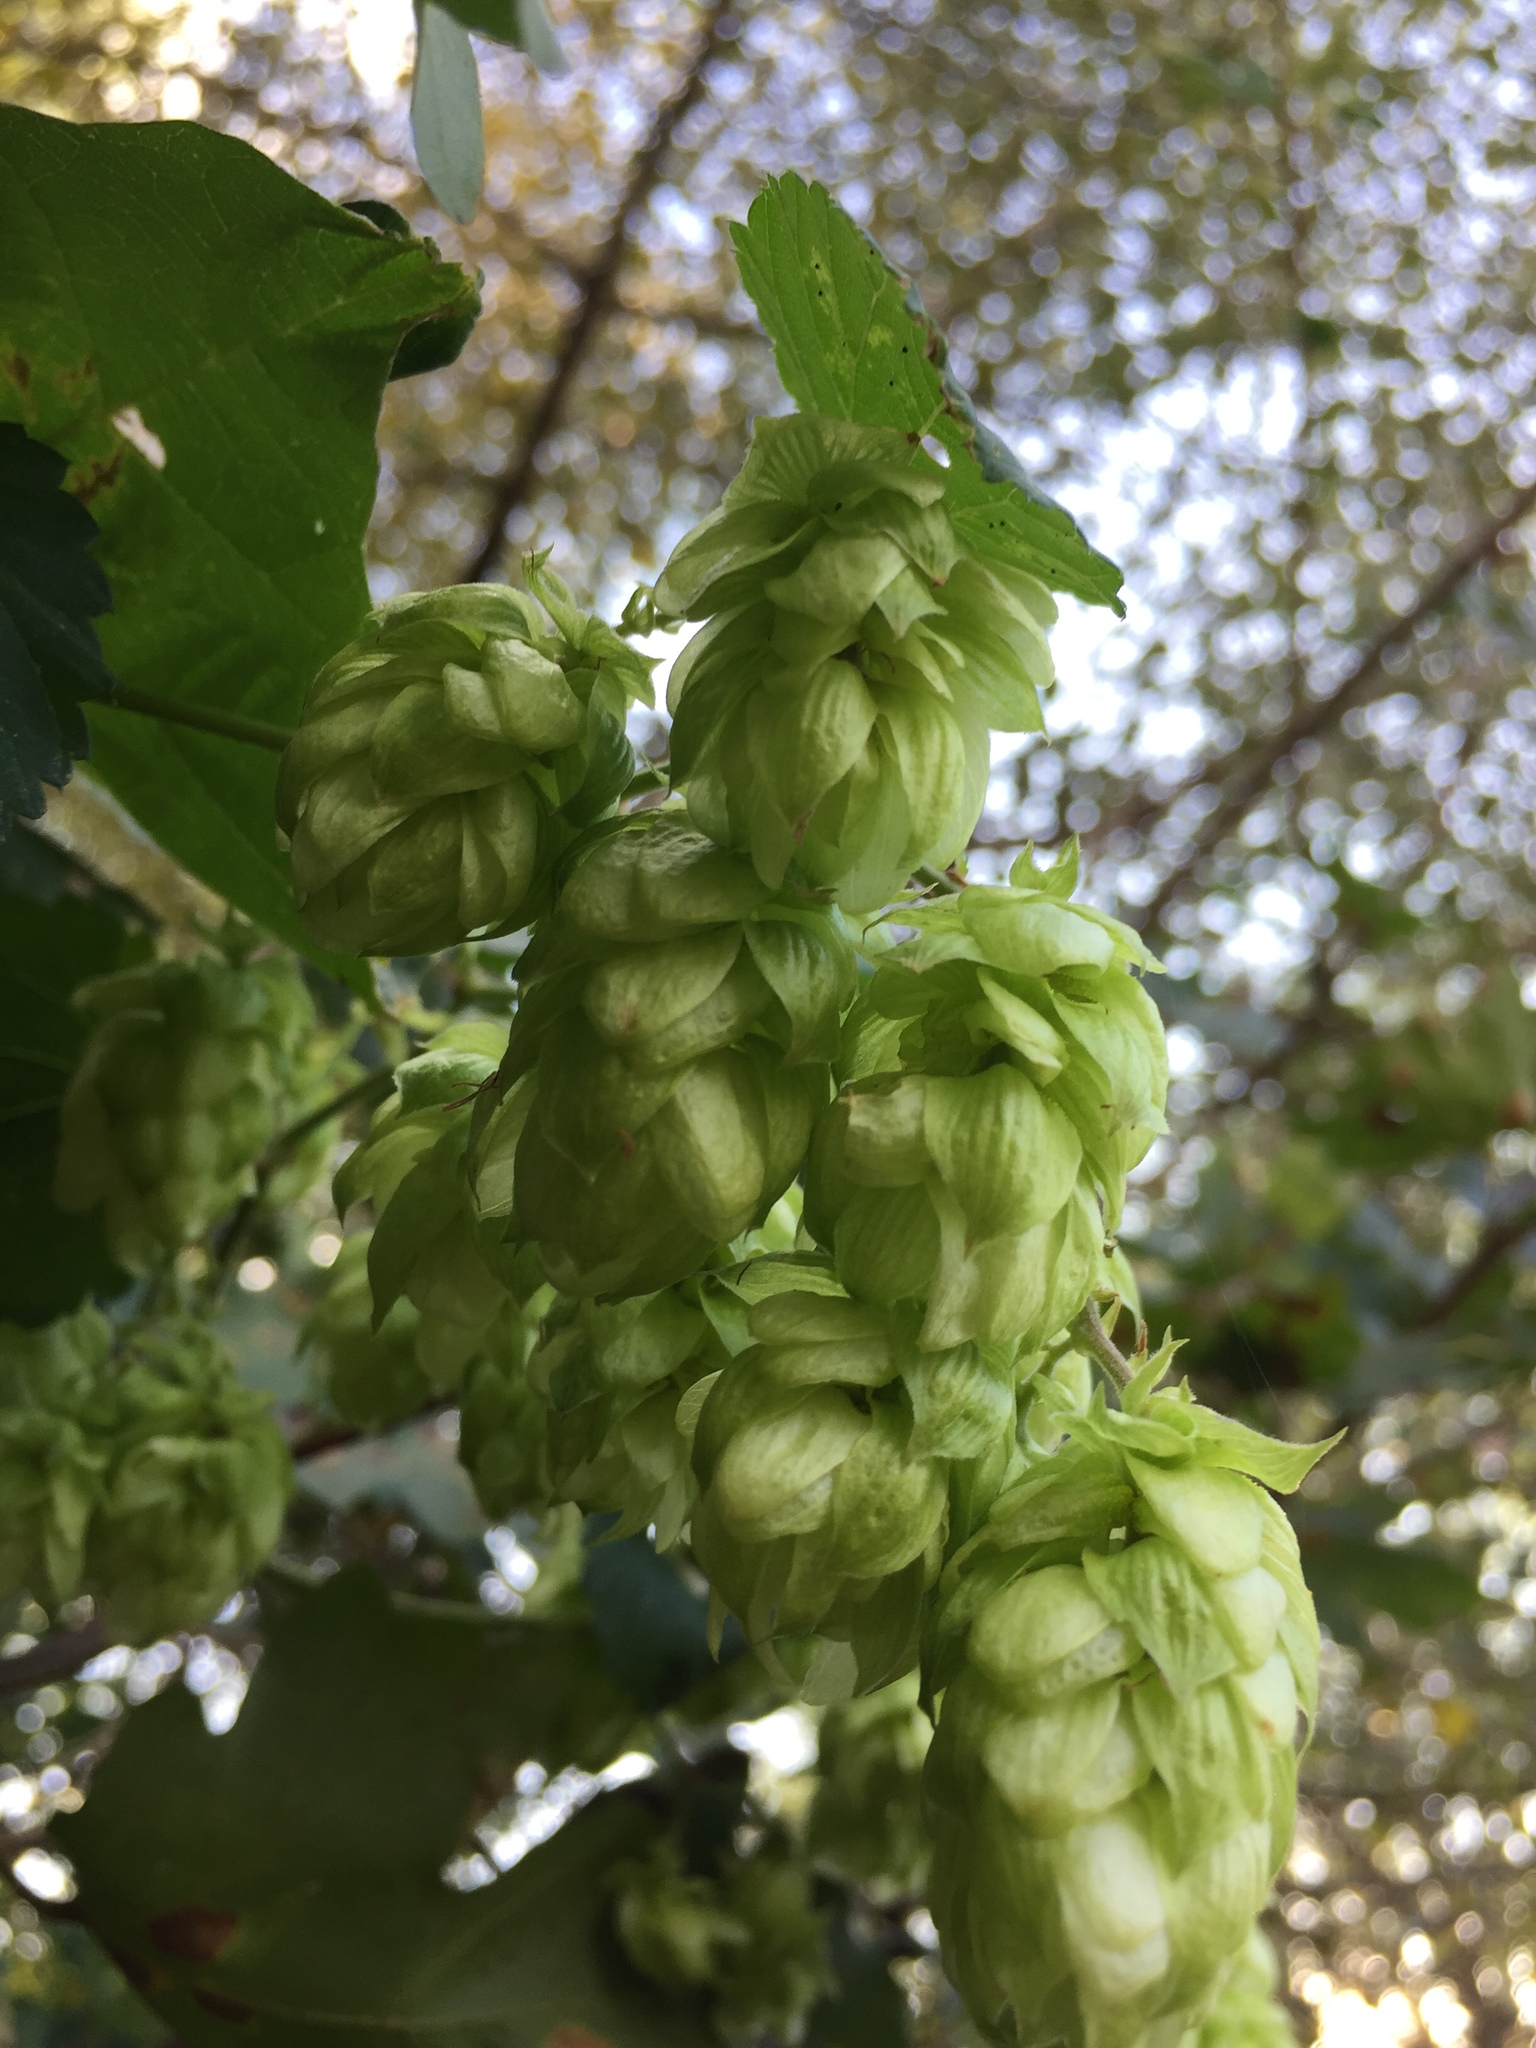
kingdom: Plantae
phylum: Tracheophyta
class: Magnoliopsida
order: Rosales
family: Cannabaceae
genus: Humulus
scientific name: Humulus lupulus
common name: Hop
